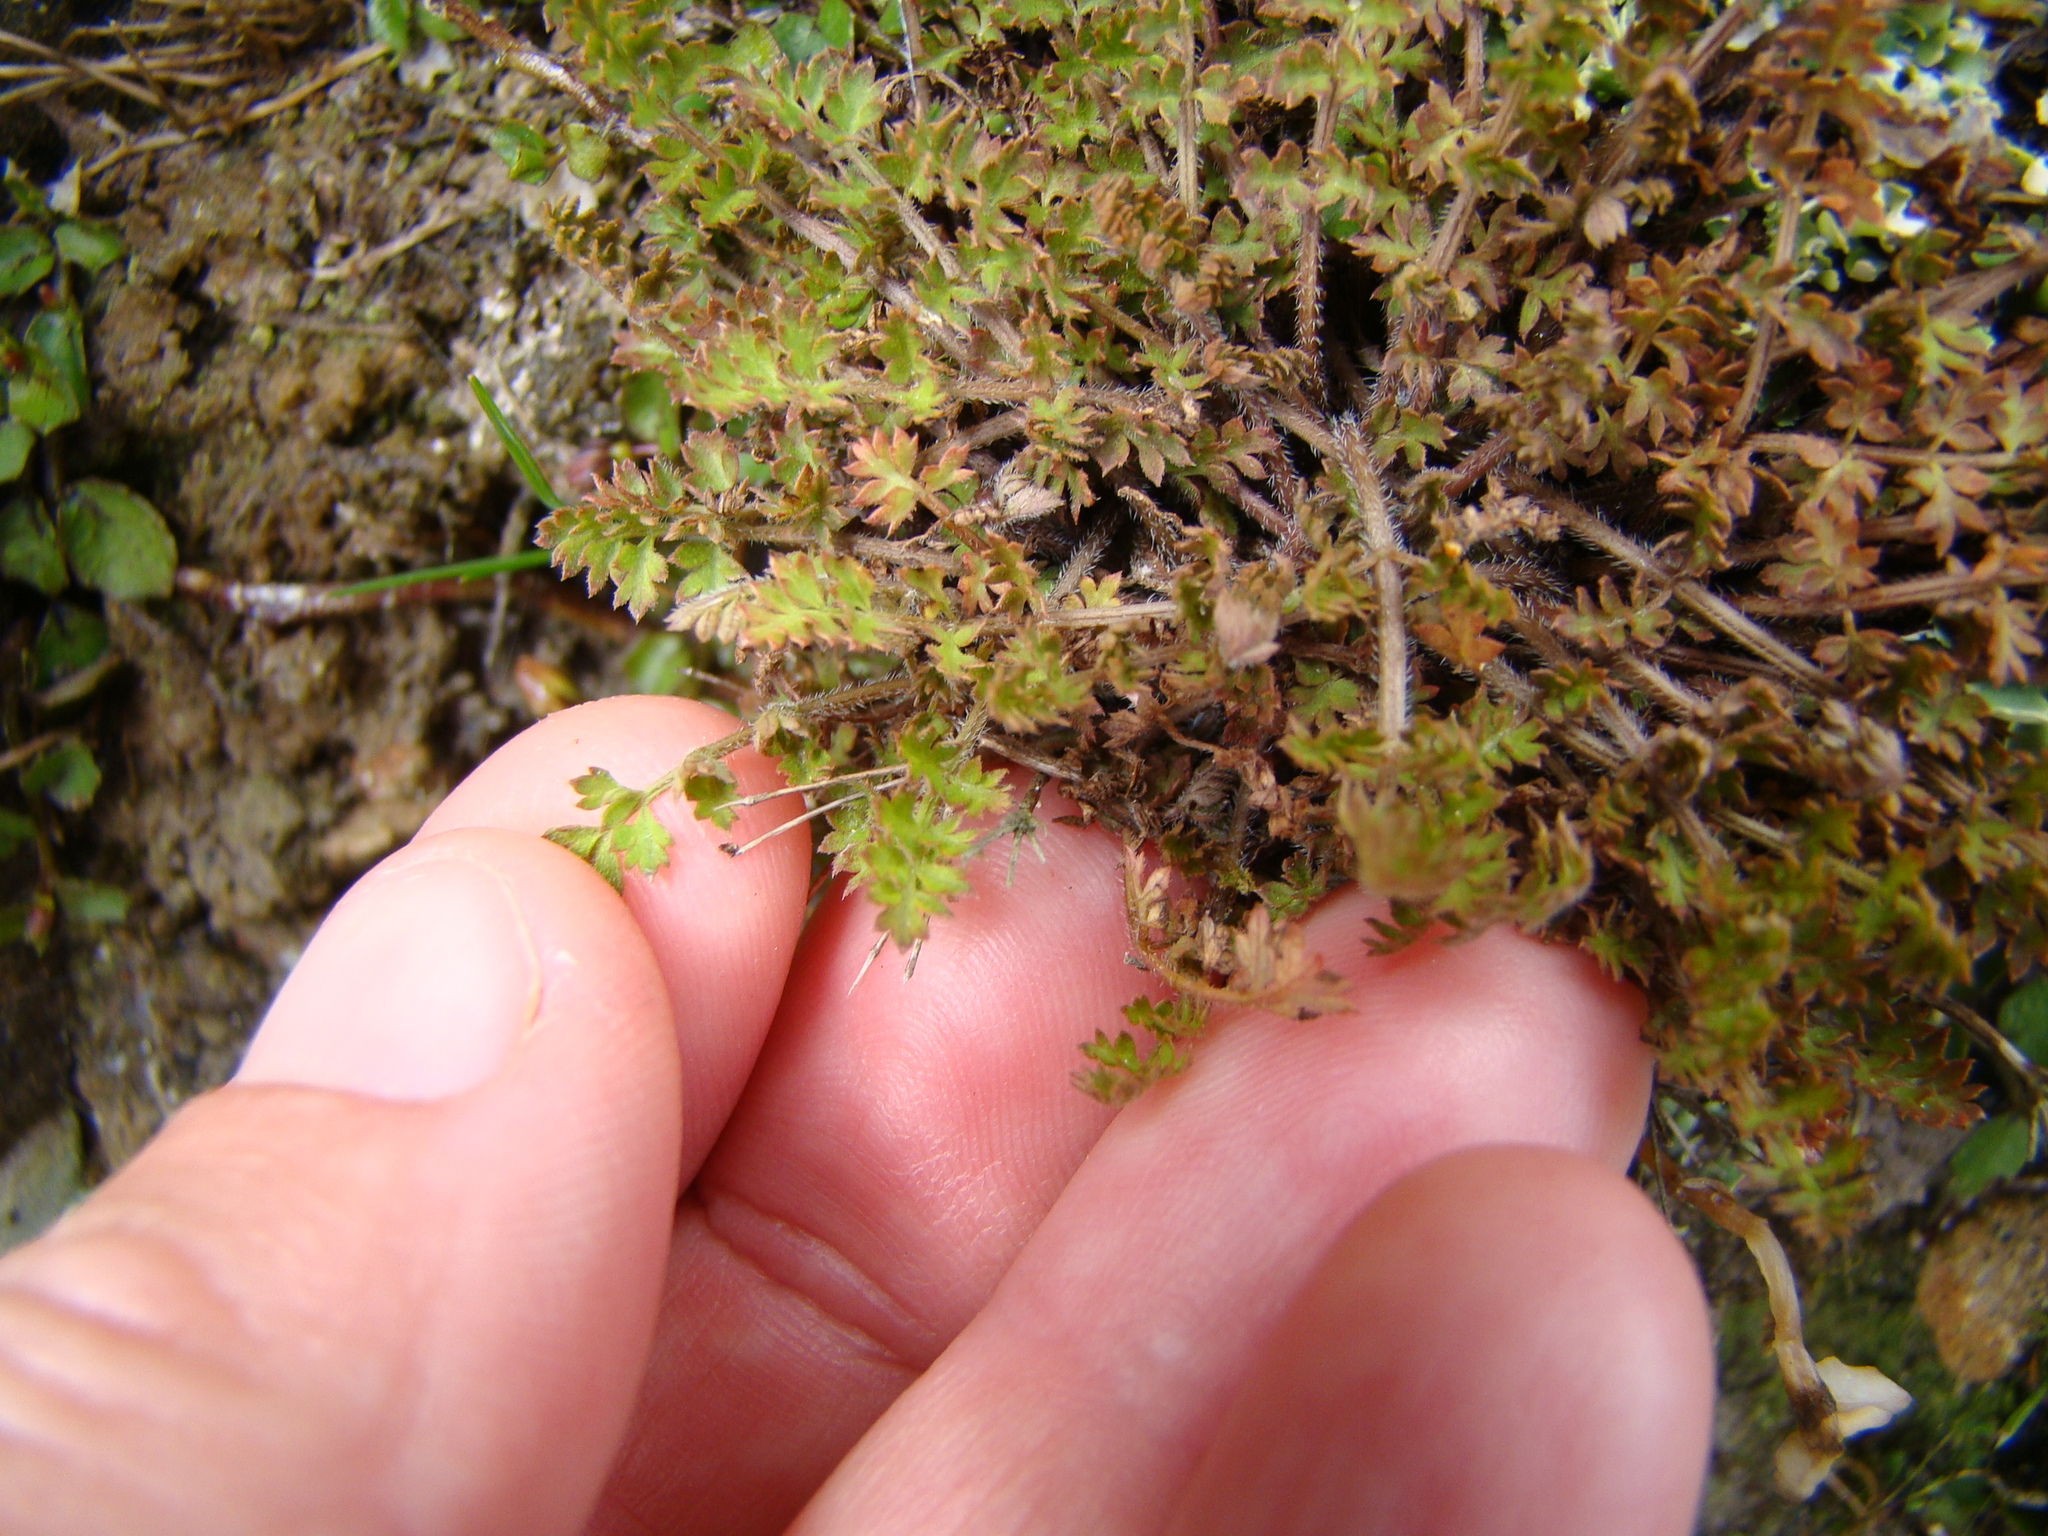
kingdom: Plantae
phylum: Tracheophyta
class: Magnoliopsida
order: Apiales
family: Apiaceae
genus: Chaerophyllum
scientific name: Chaerophyllum colensoi
